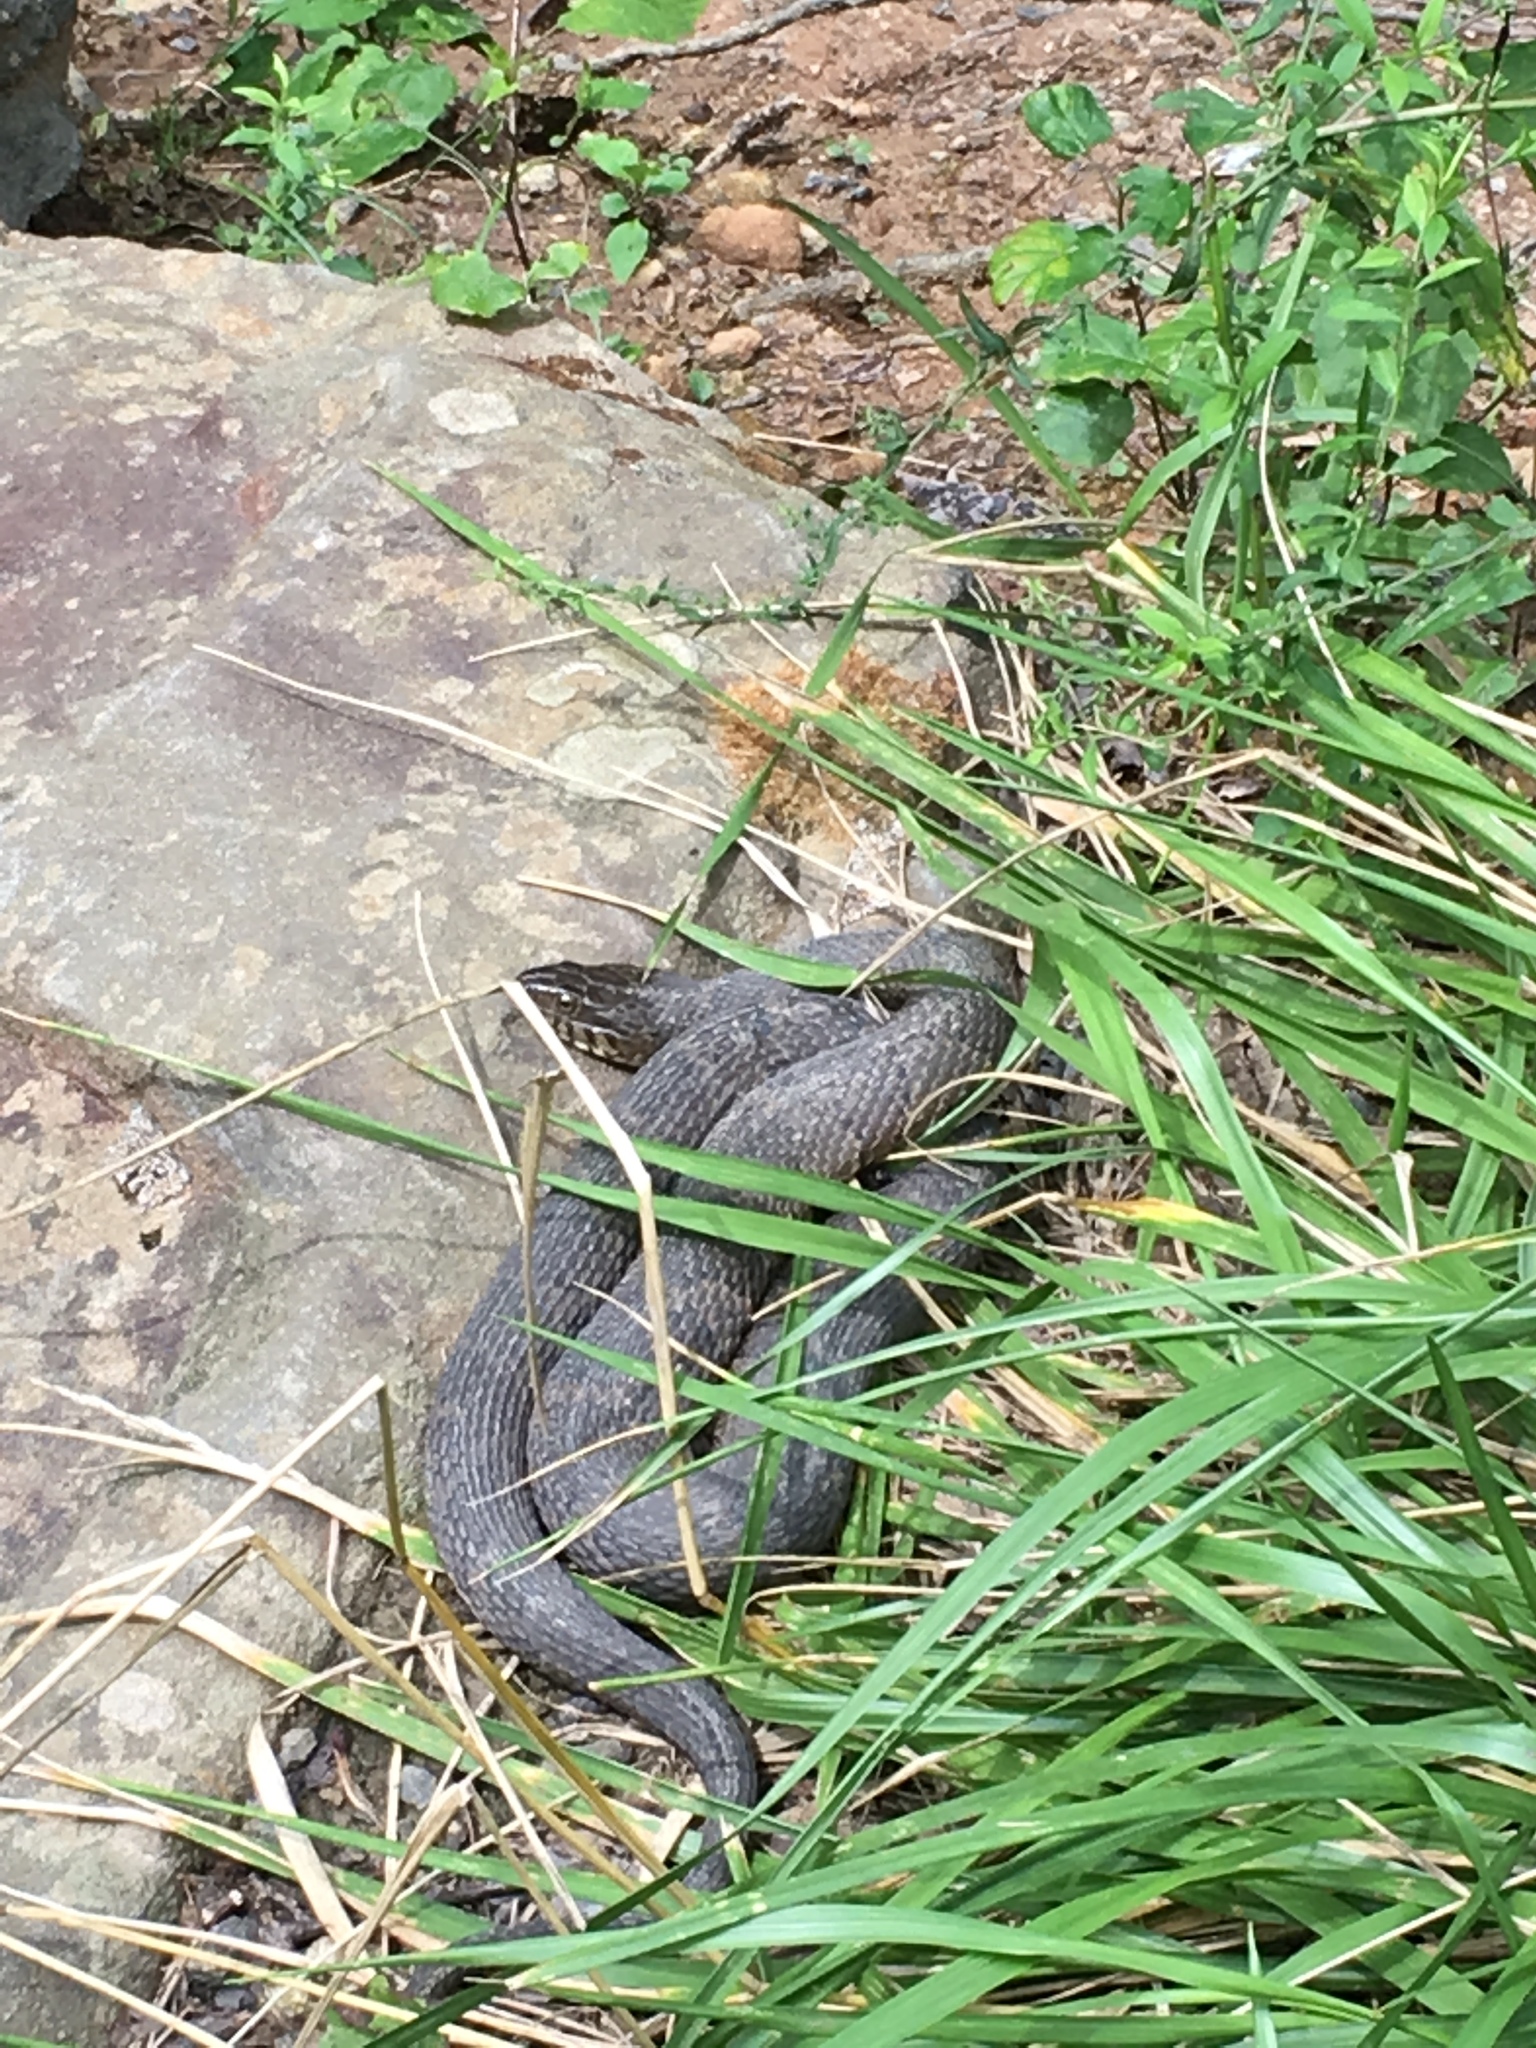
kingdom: Animalia
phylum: Chordata
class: Squamata
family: Colubridae
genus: Nerodia
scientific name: Nerodia sipedon
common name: Northern water snake
